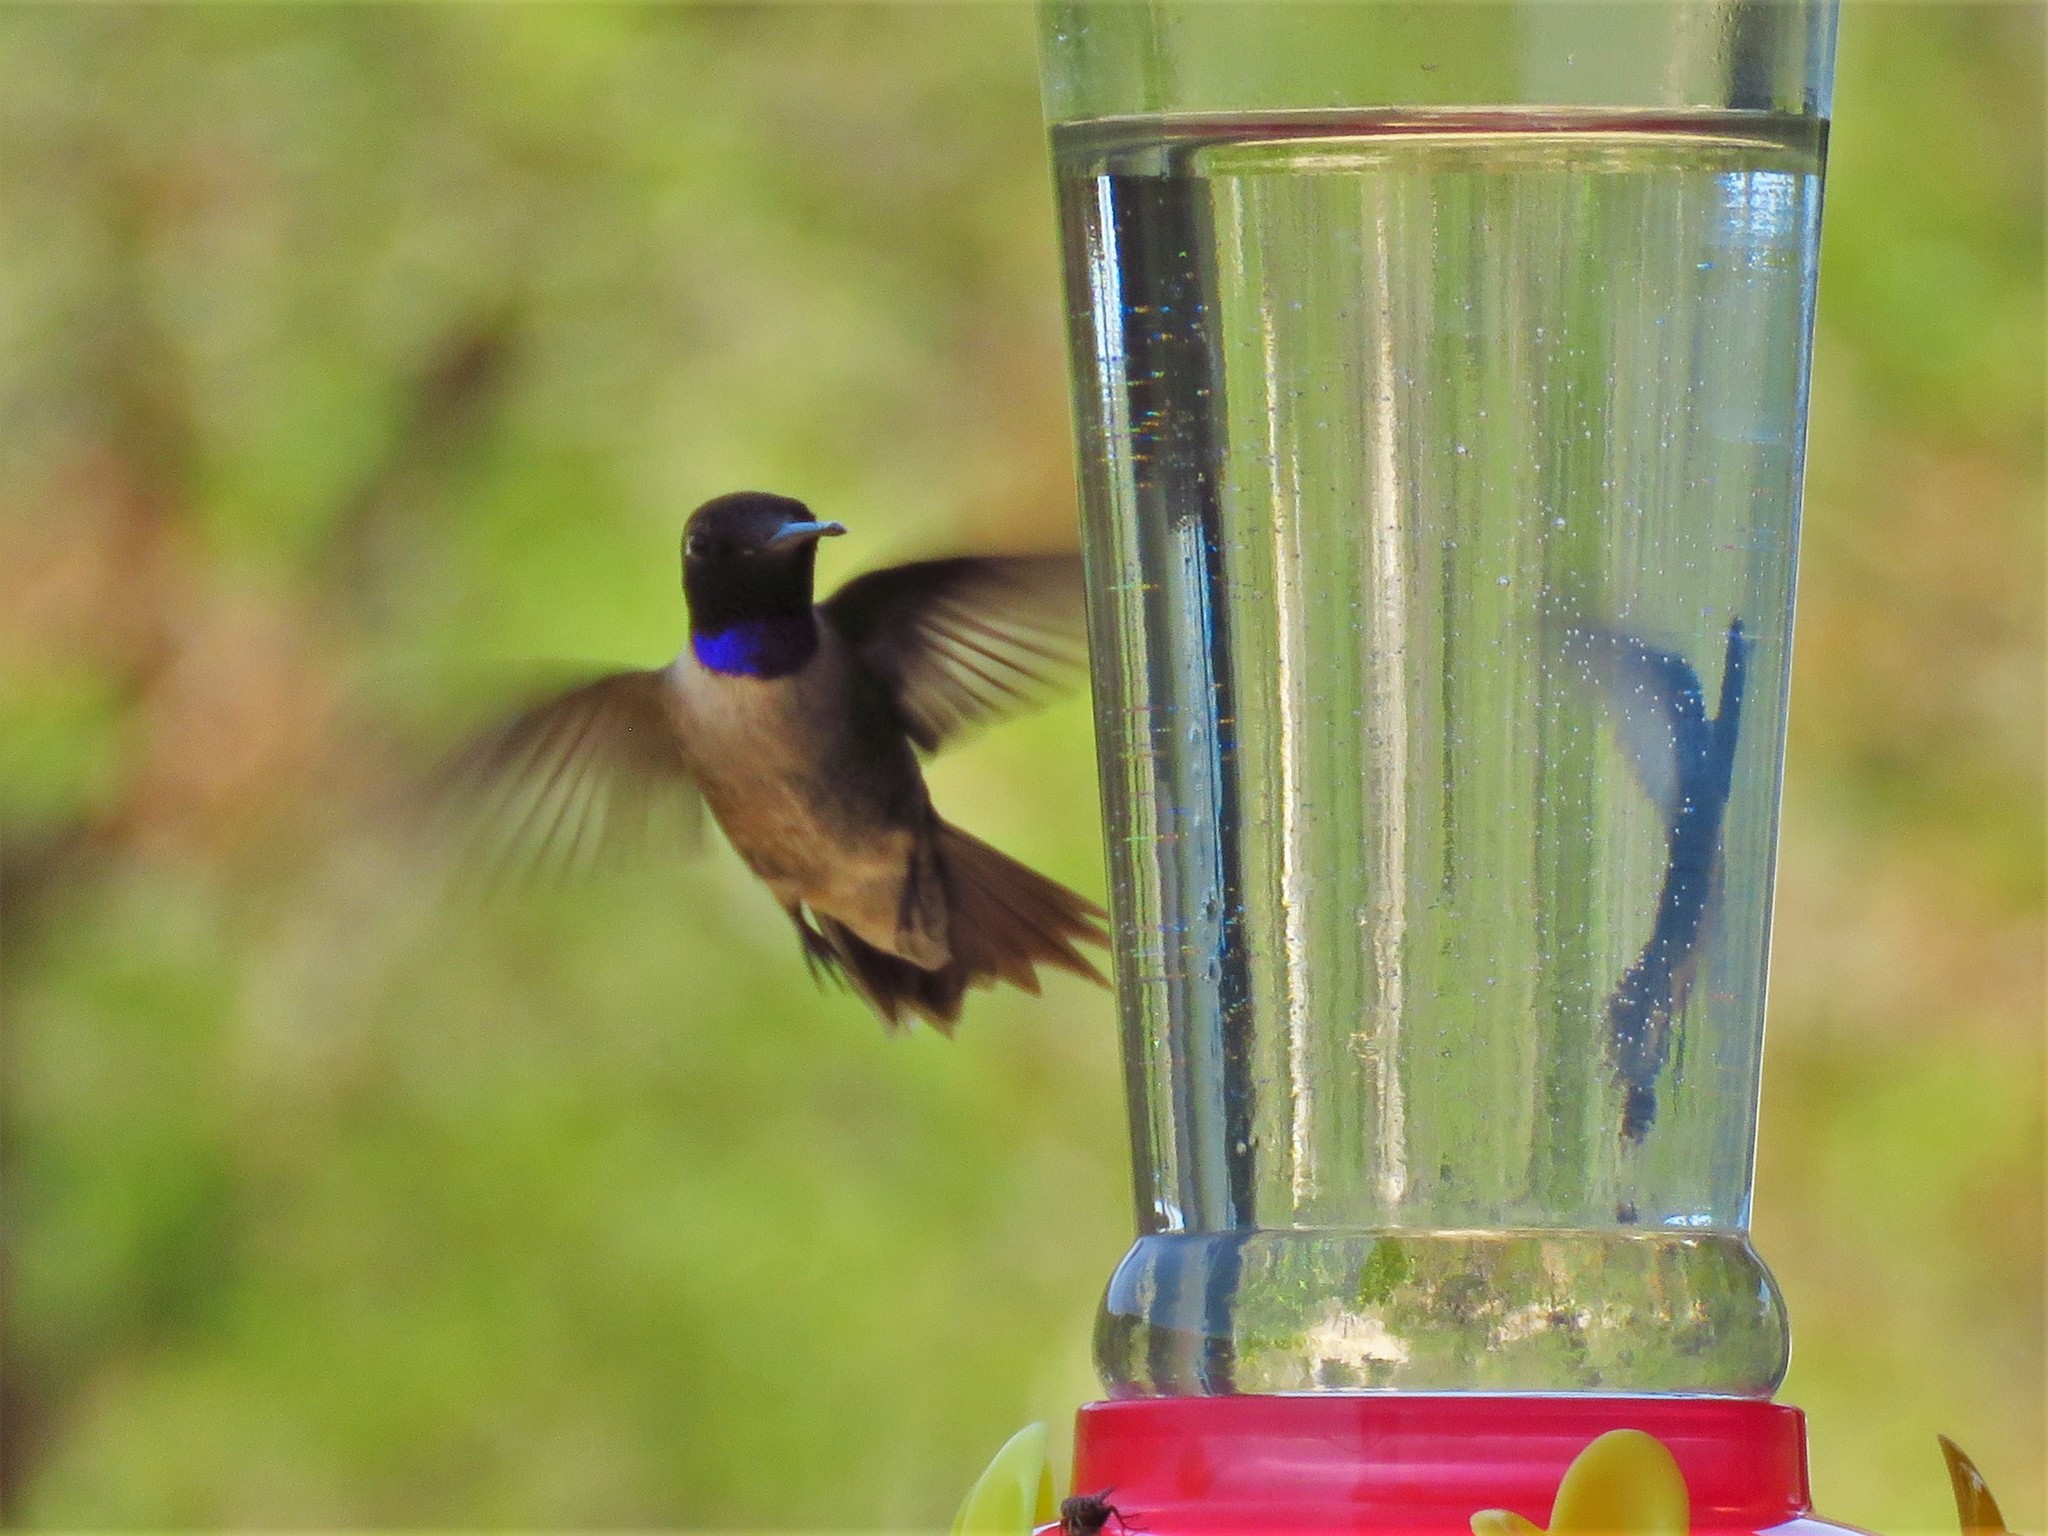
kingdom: Animalia
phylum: Chordata
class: Aves
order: Apodiformes
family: Trochilidae
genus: Archilochus
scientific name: Archilochus alexandri
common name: Black-chinned hummingbird
